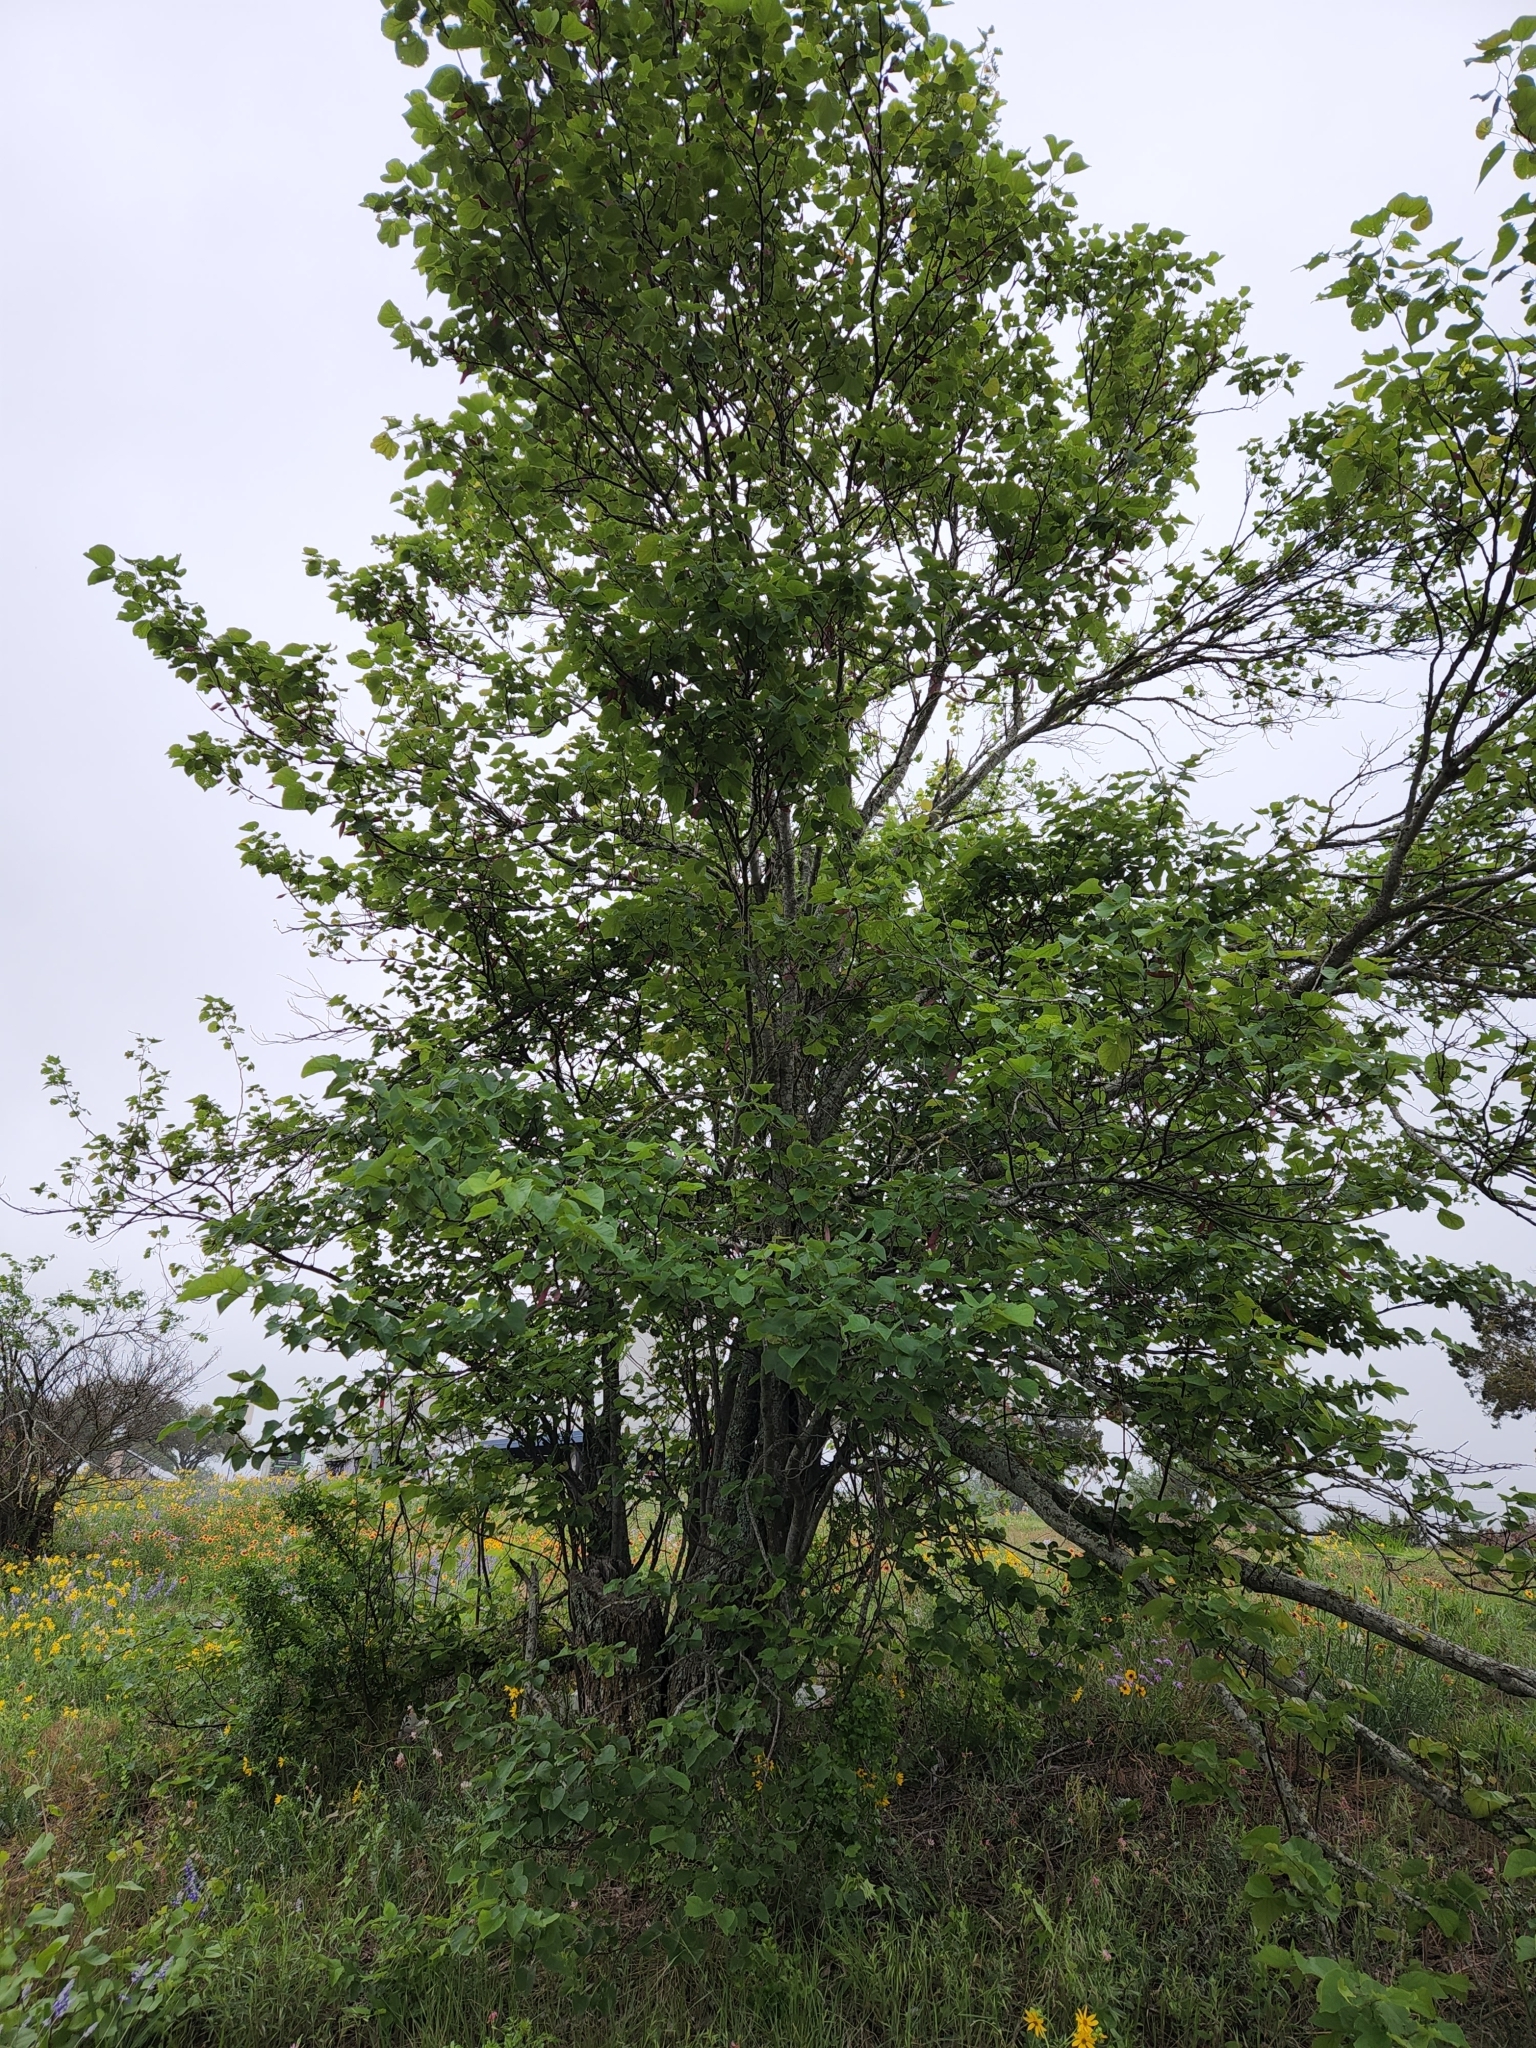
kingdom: Plantae
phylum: Tracheophyta
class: Magnoliopsida
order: Fabales
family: Fabaceae
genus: Cercis
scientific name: Cercis canadensis
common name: Eastern redbud
